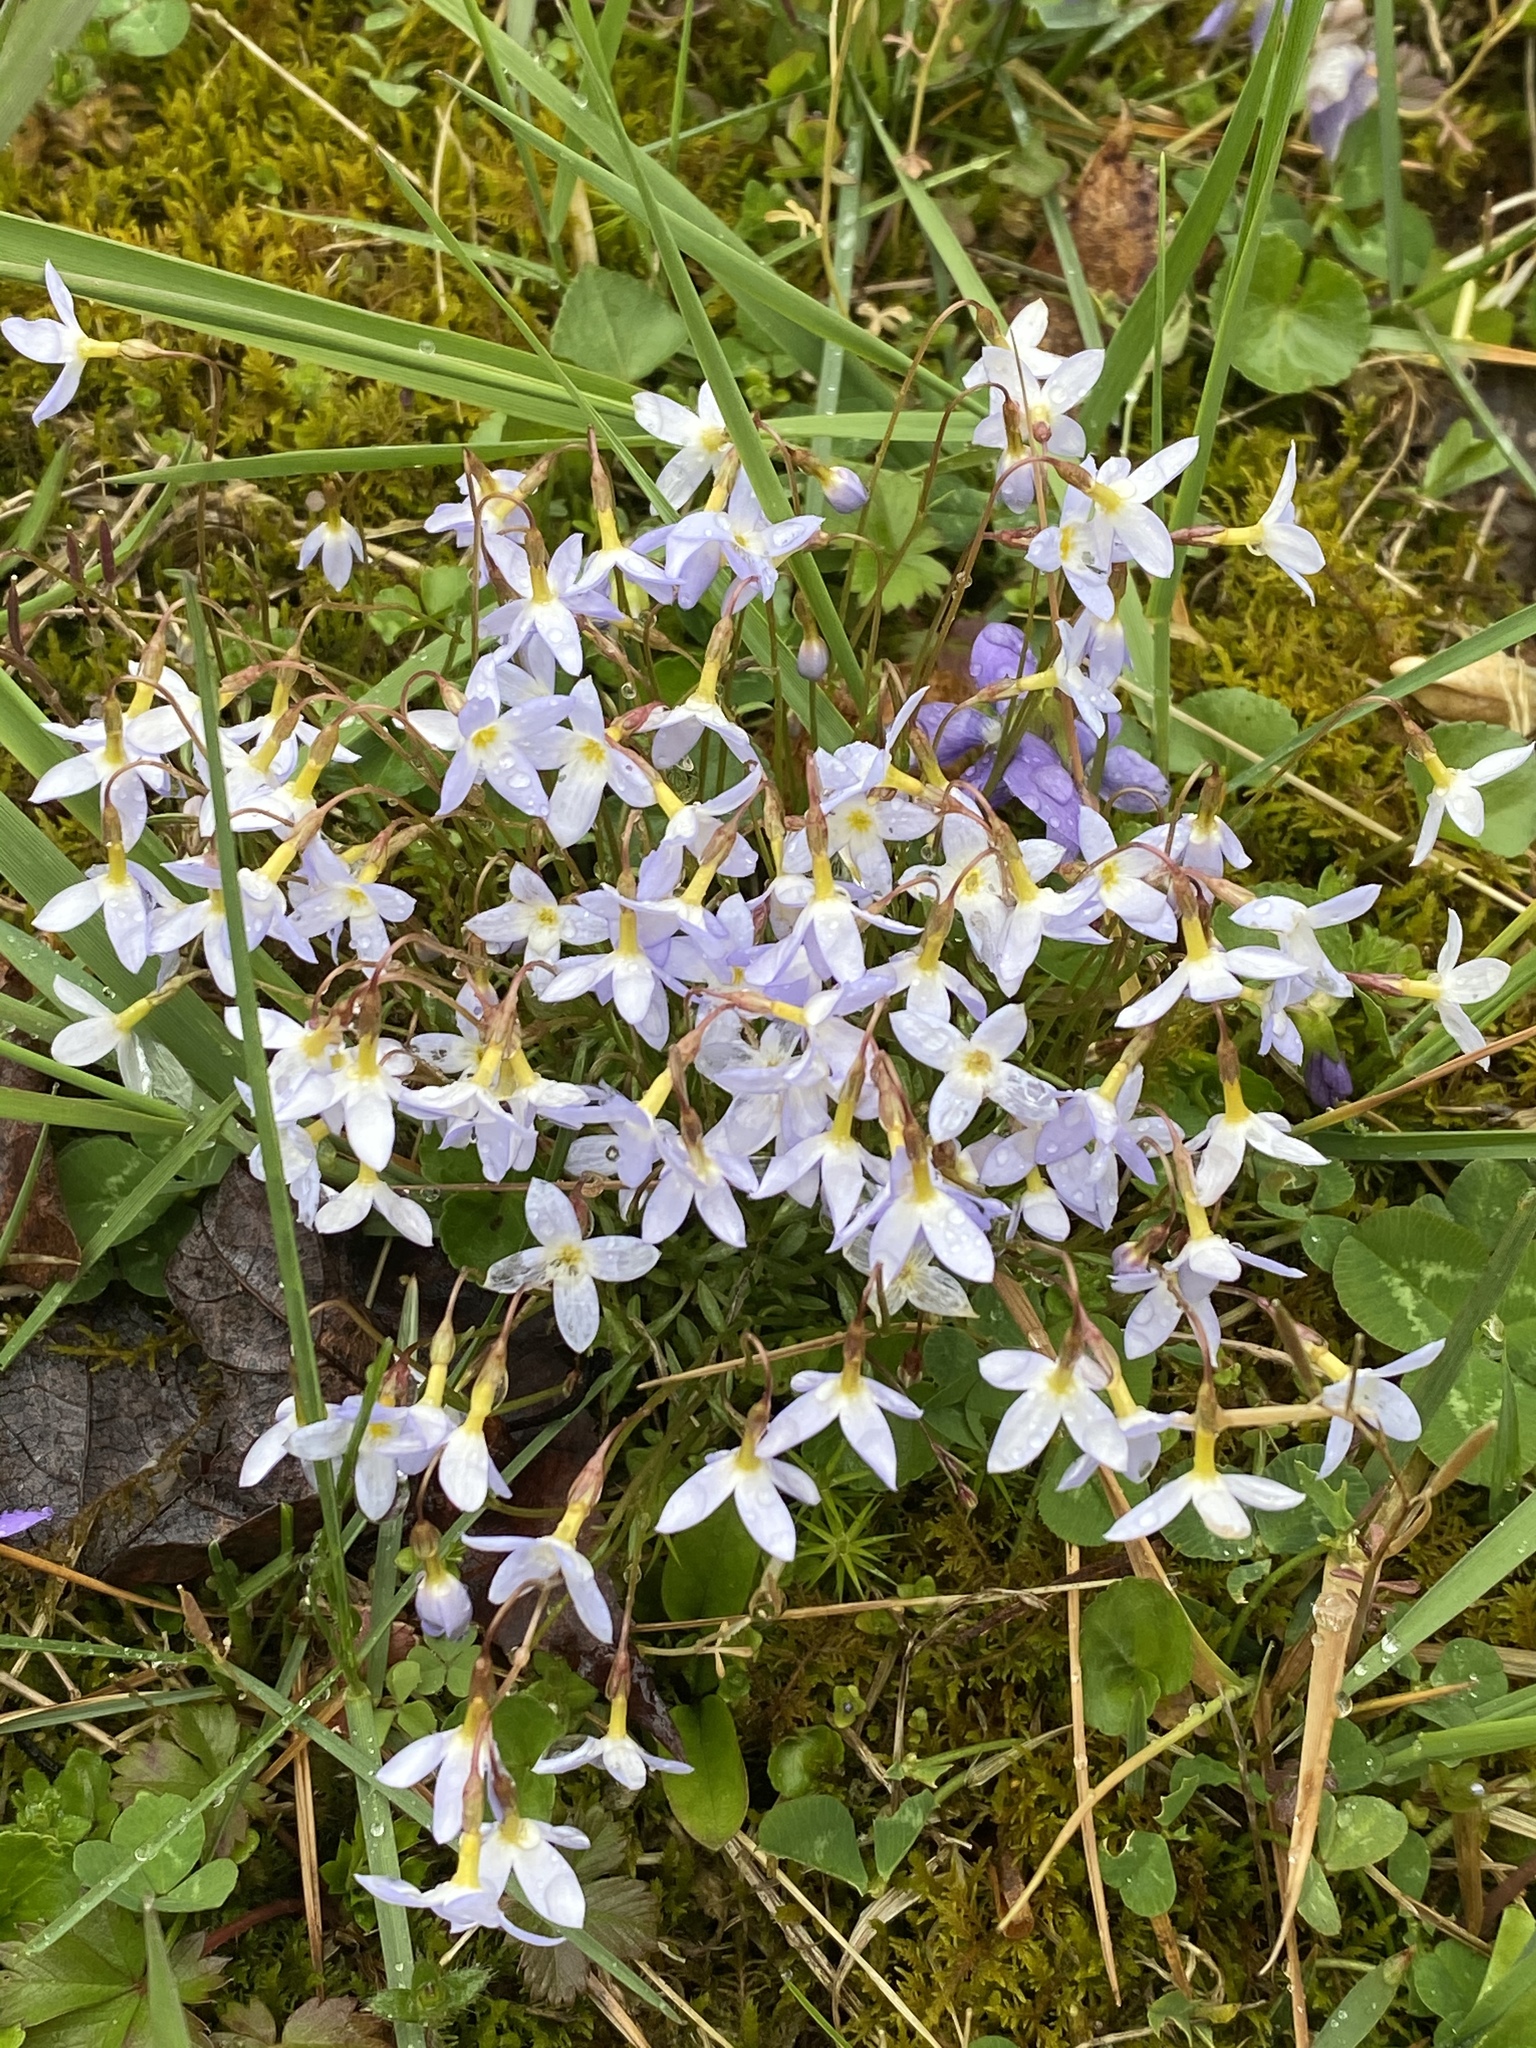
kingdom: Plantae
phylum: Tracheophyta
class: Magnoliopsida
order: Gentianales
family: Rubiaceae
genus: Houstonia
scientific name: Houstonia caerulea
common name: Bluets
